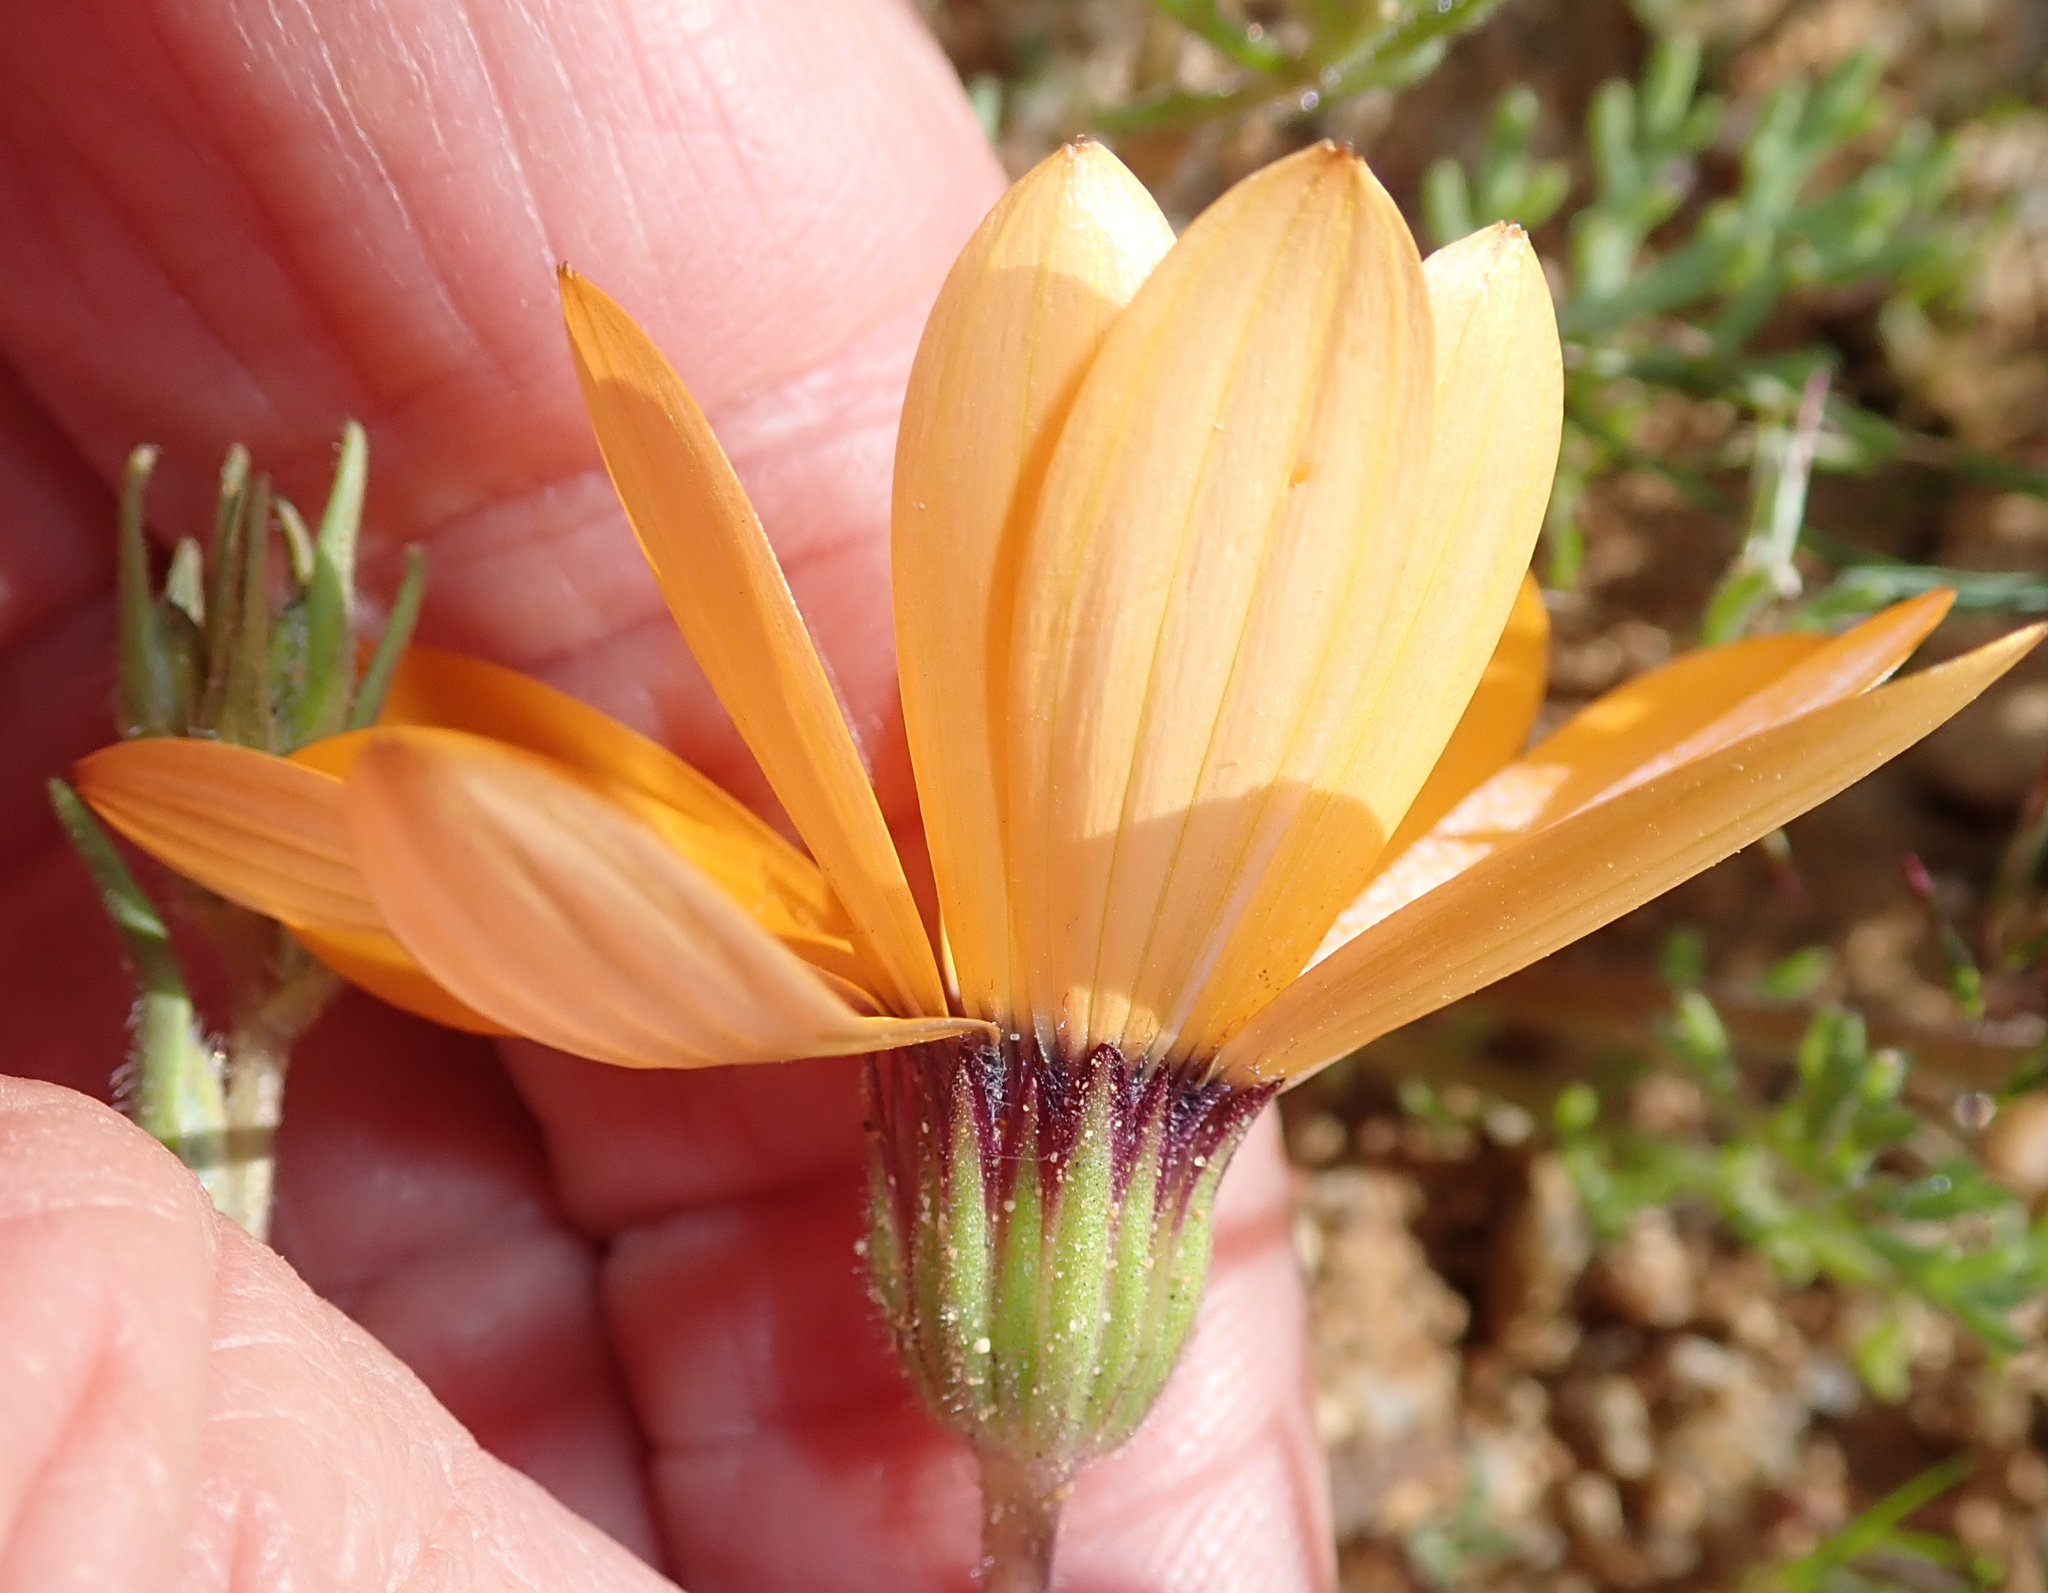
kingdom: Plantae
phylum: Tracheophyta
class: Magnoliopsida
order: Asterales
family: Asteraceae
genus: Dimorphotheca
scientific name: Dimorphotheca pinnata
